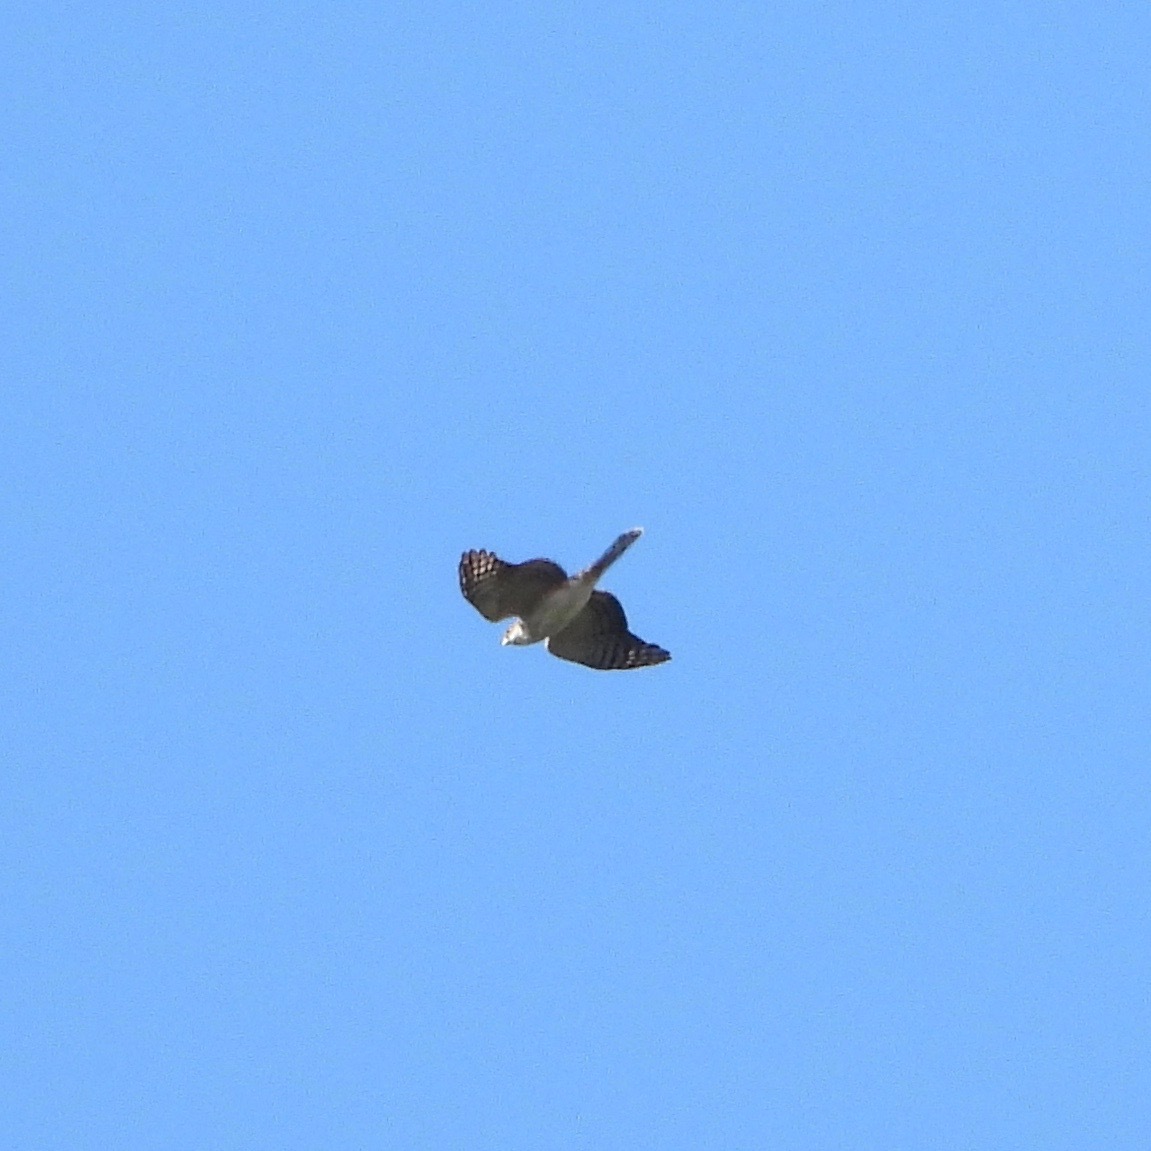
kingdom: Animalia
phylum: Chordata
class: Aves
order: Accipitriformes
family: Accipitridae
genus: Accipiter
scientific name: Accipiter striatus
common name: Sharp-shinned hawk
